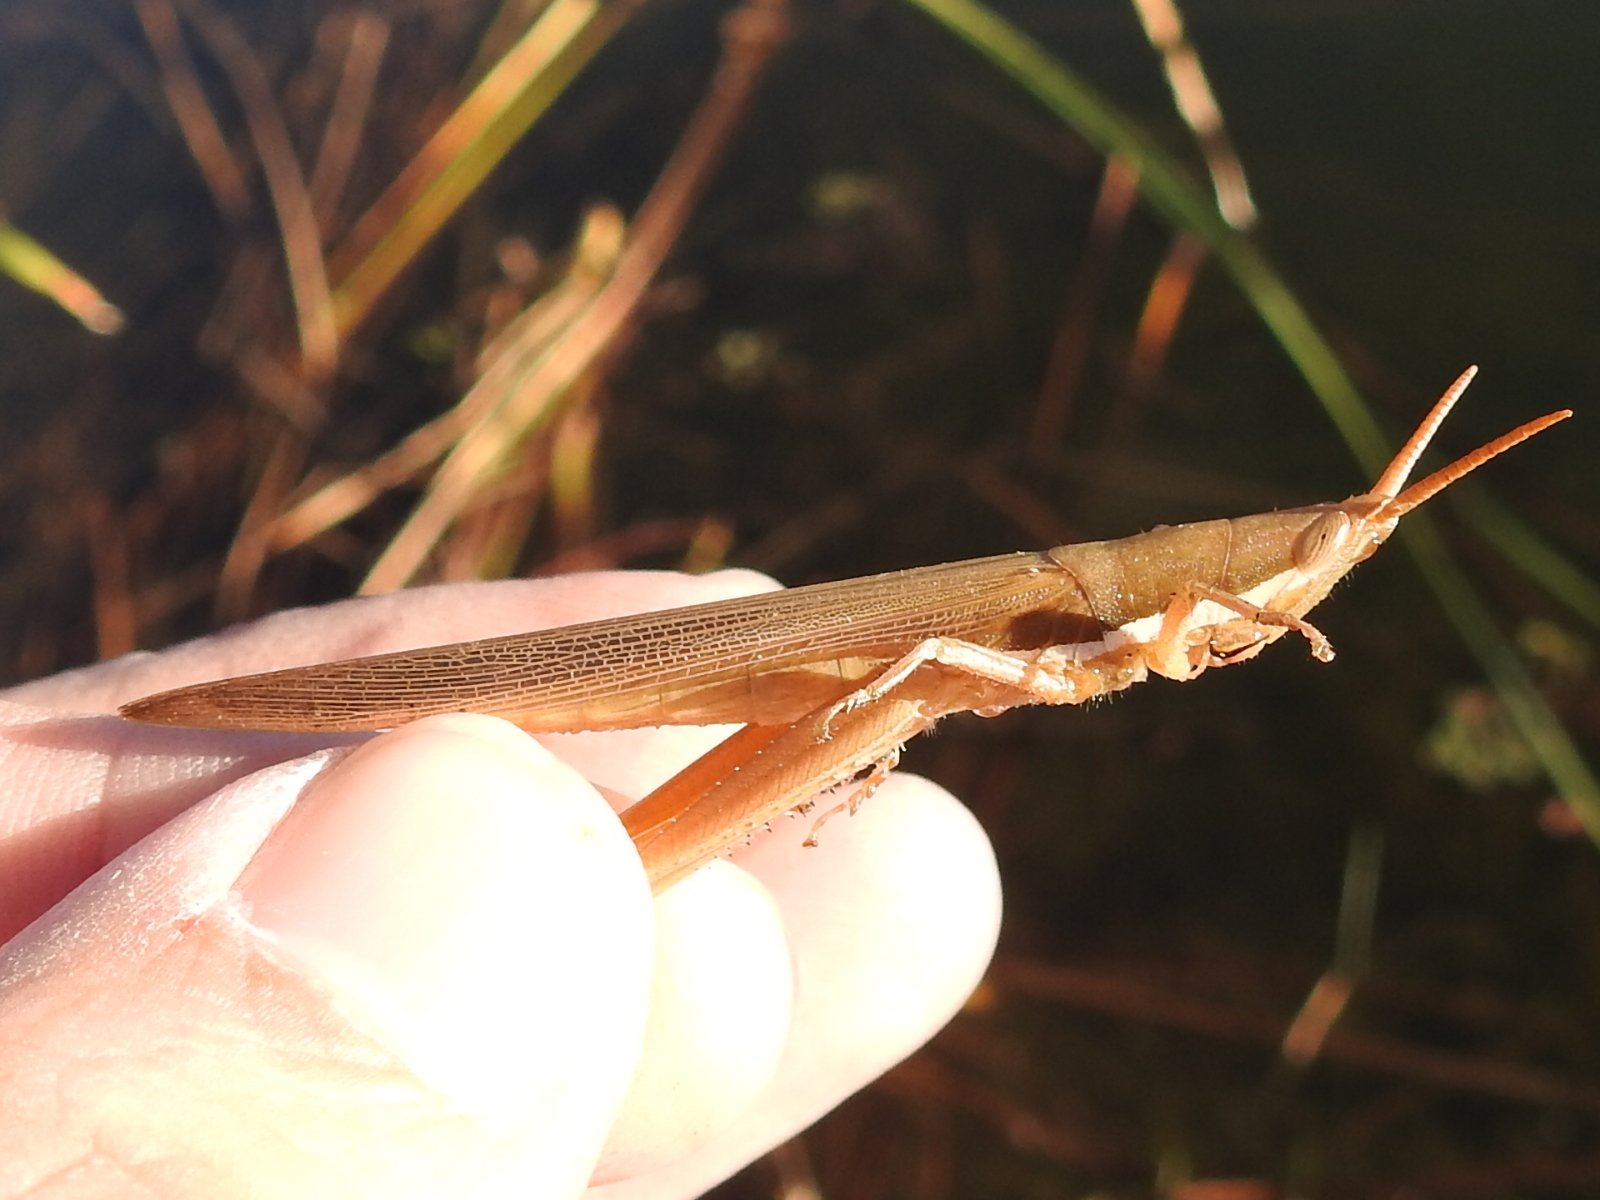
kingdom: Animalia
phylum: Arthropoda
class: Insecta
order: Orthoptera
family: Acrididae
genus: Leptysma
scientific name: Leptysma marginicollis
